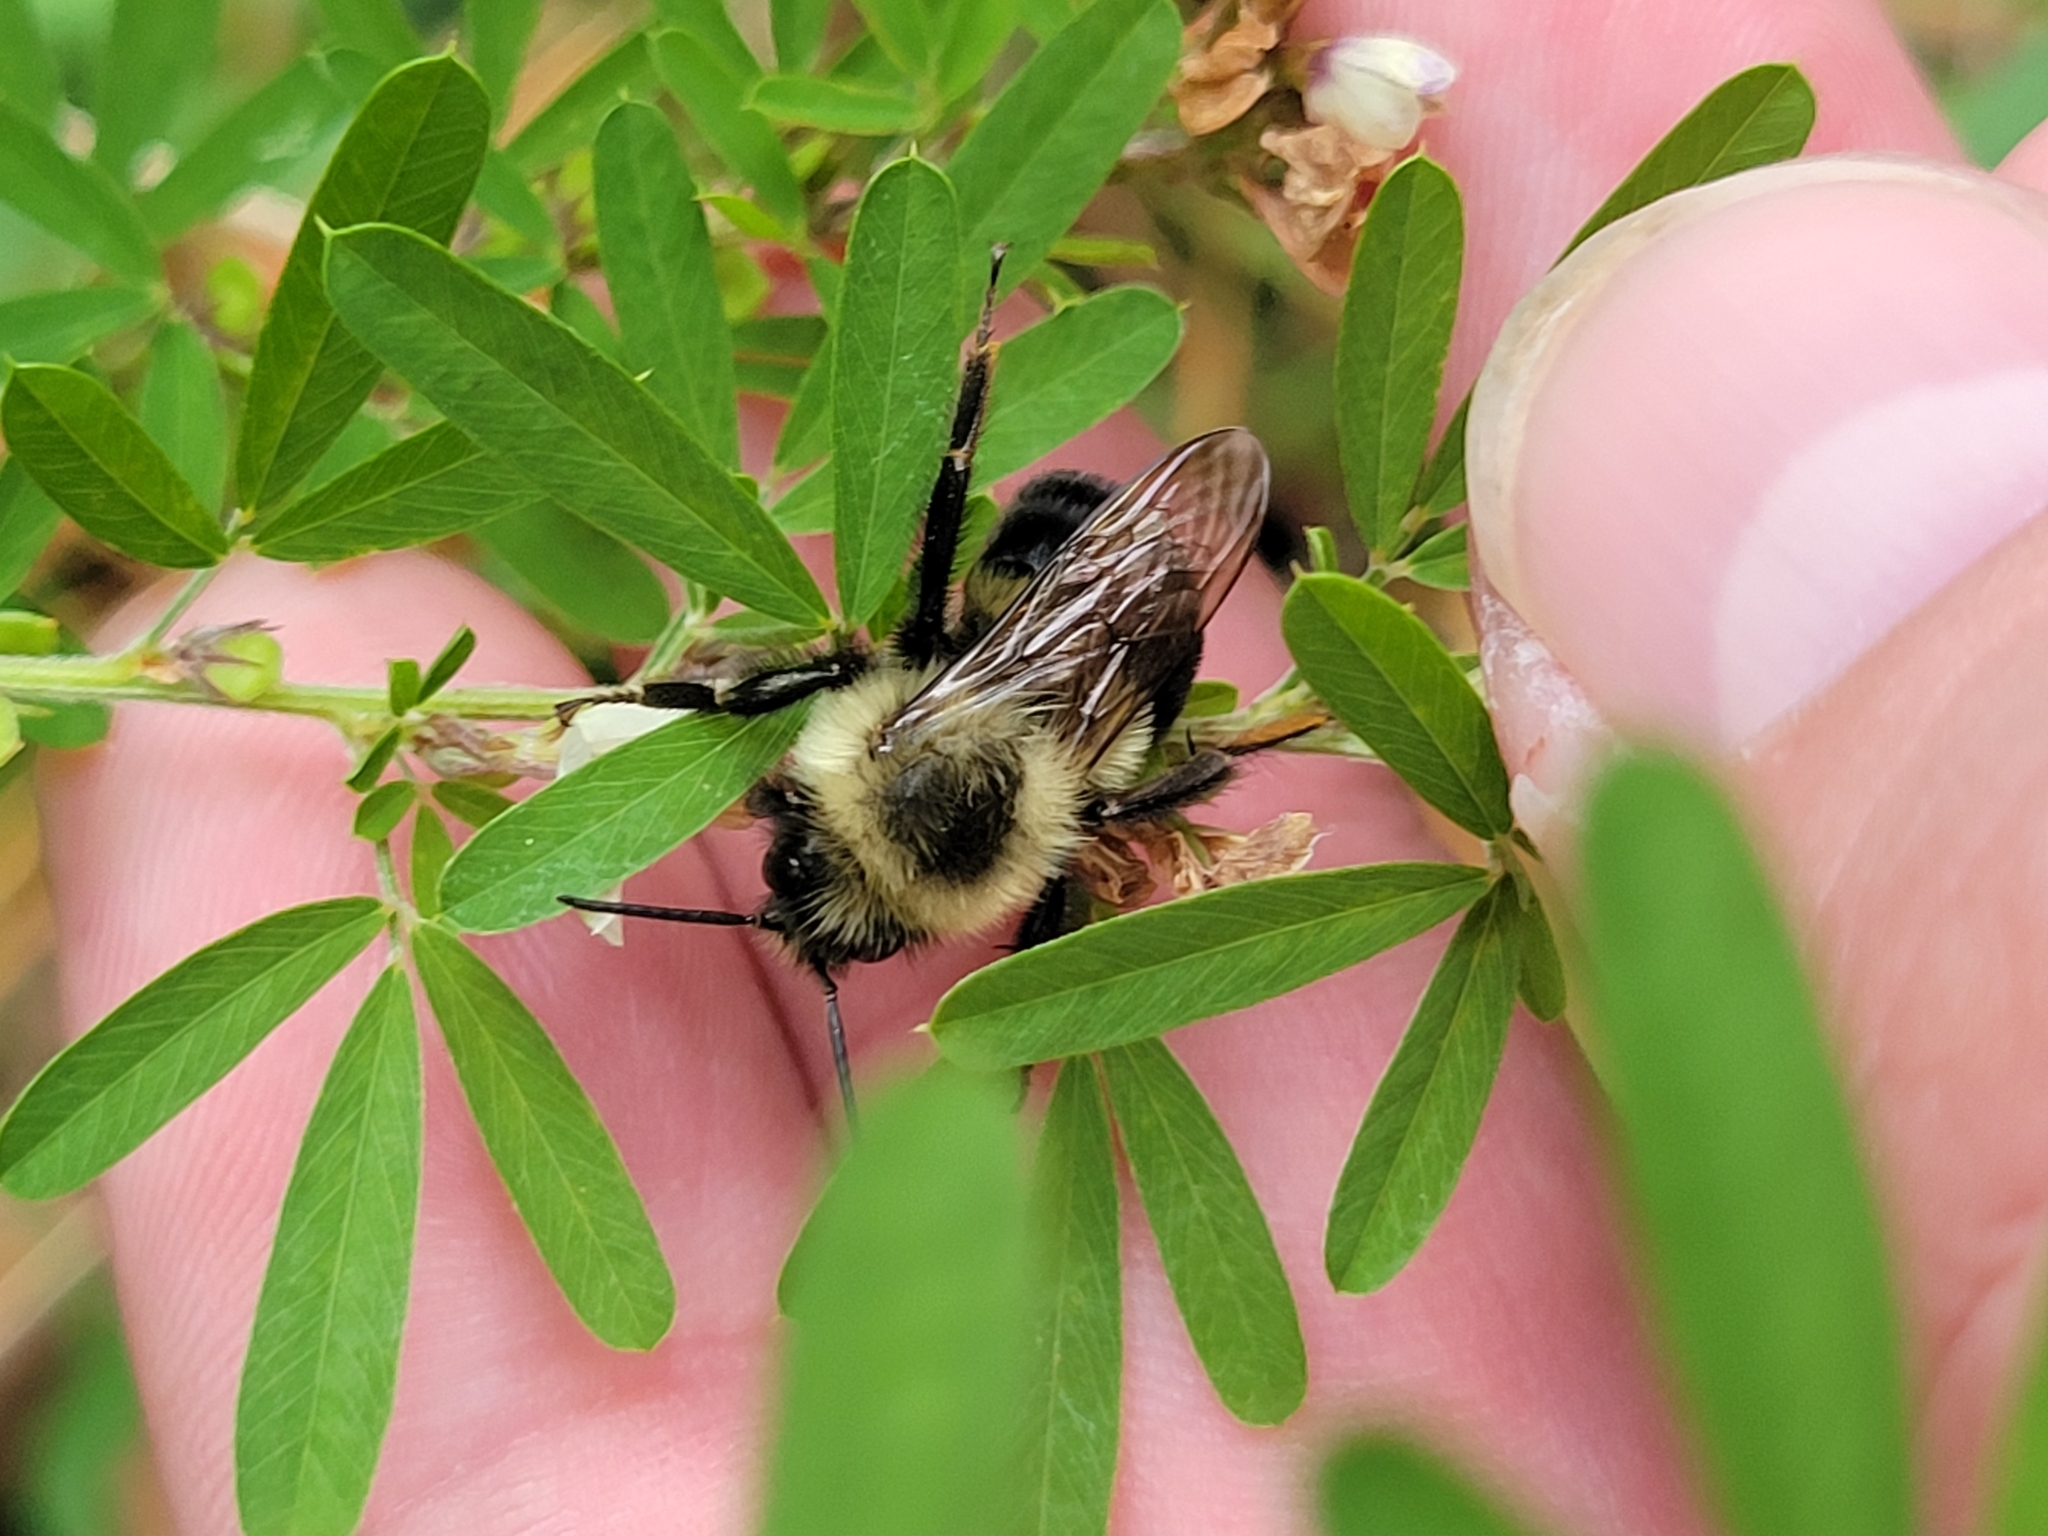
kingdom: Animalia
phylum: Arthropoda
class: Insecta
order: Hymenoptera
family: Apidae
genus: Bombus
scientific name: Bombus impatiens
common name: Common eastern bumble bee
